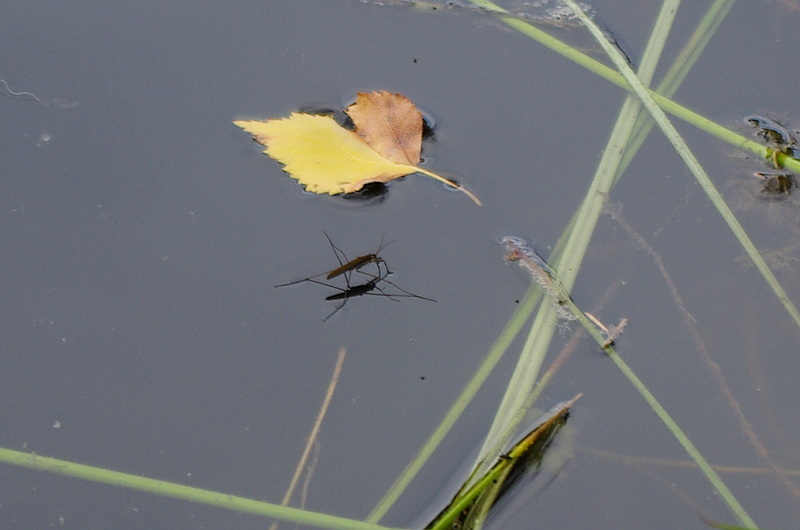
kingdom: Animalia
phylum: Arthropoda
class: Insecta
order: Hemiptera
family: Gerridae
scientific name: Gerridae
